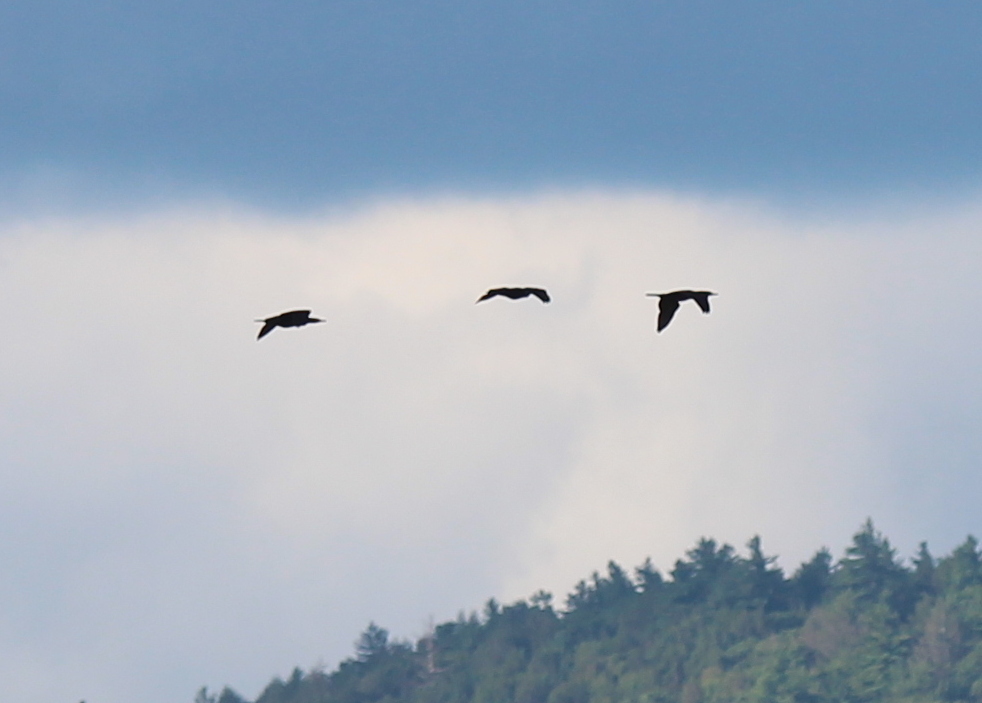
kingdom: Animalia
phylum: Chordata
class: Aves
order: Suliformes
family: Phalacrocoracidae
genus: Phalacrocorax
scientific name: Phalacrocorax auritus
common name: Double-crested cormorant
